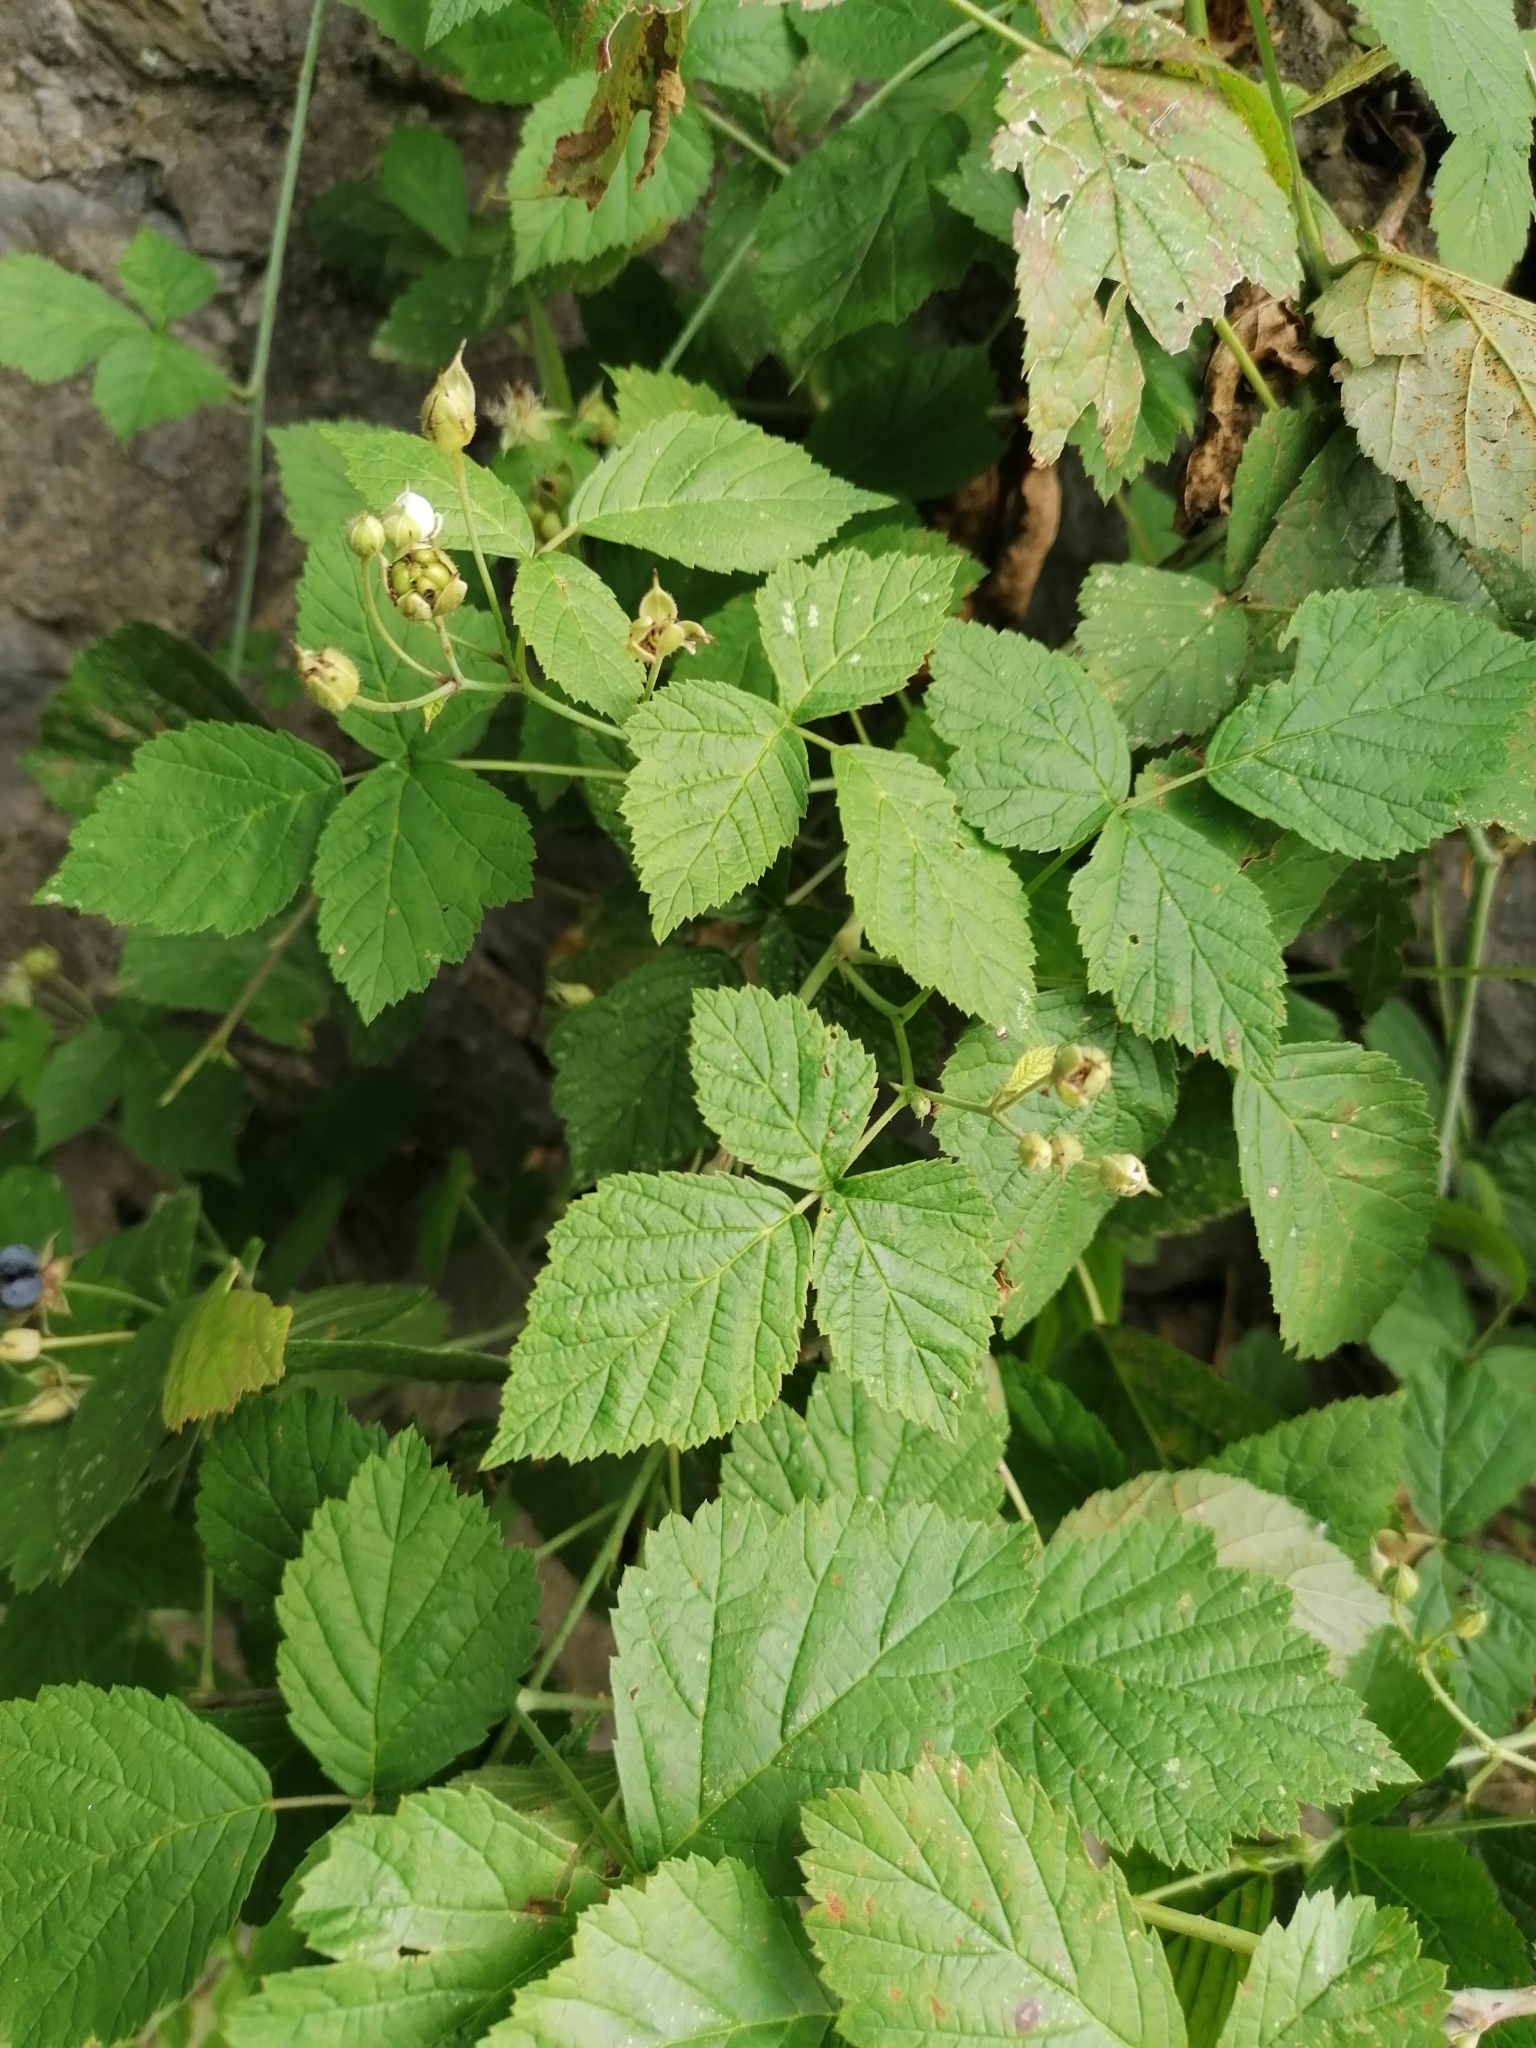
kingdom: Plantae
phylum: Tracheophyta
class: Magnoliopsida
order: Rosales
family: Rosaceae
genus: Rubus
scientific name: Rubus caesius
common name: Dewberry
